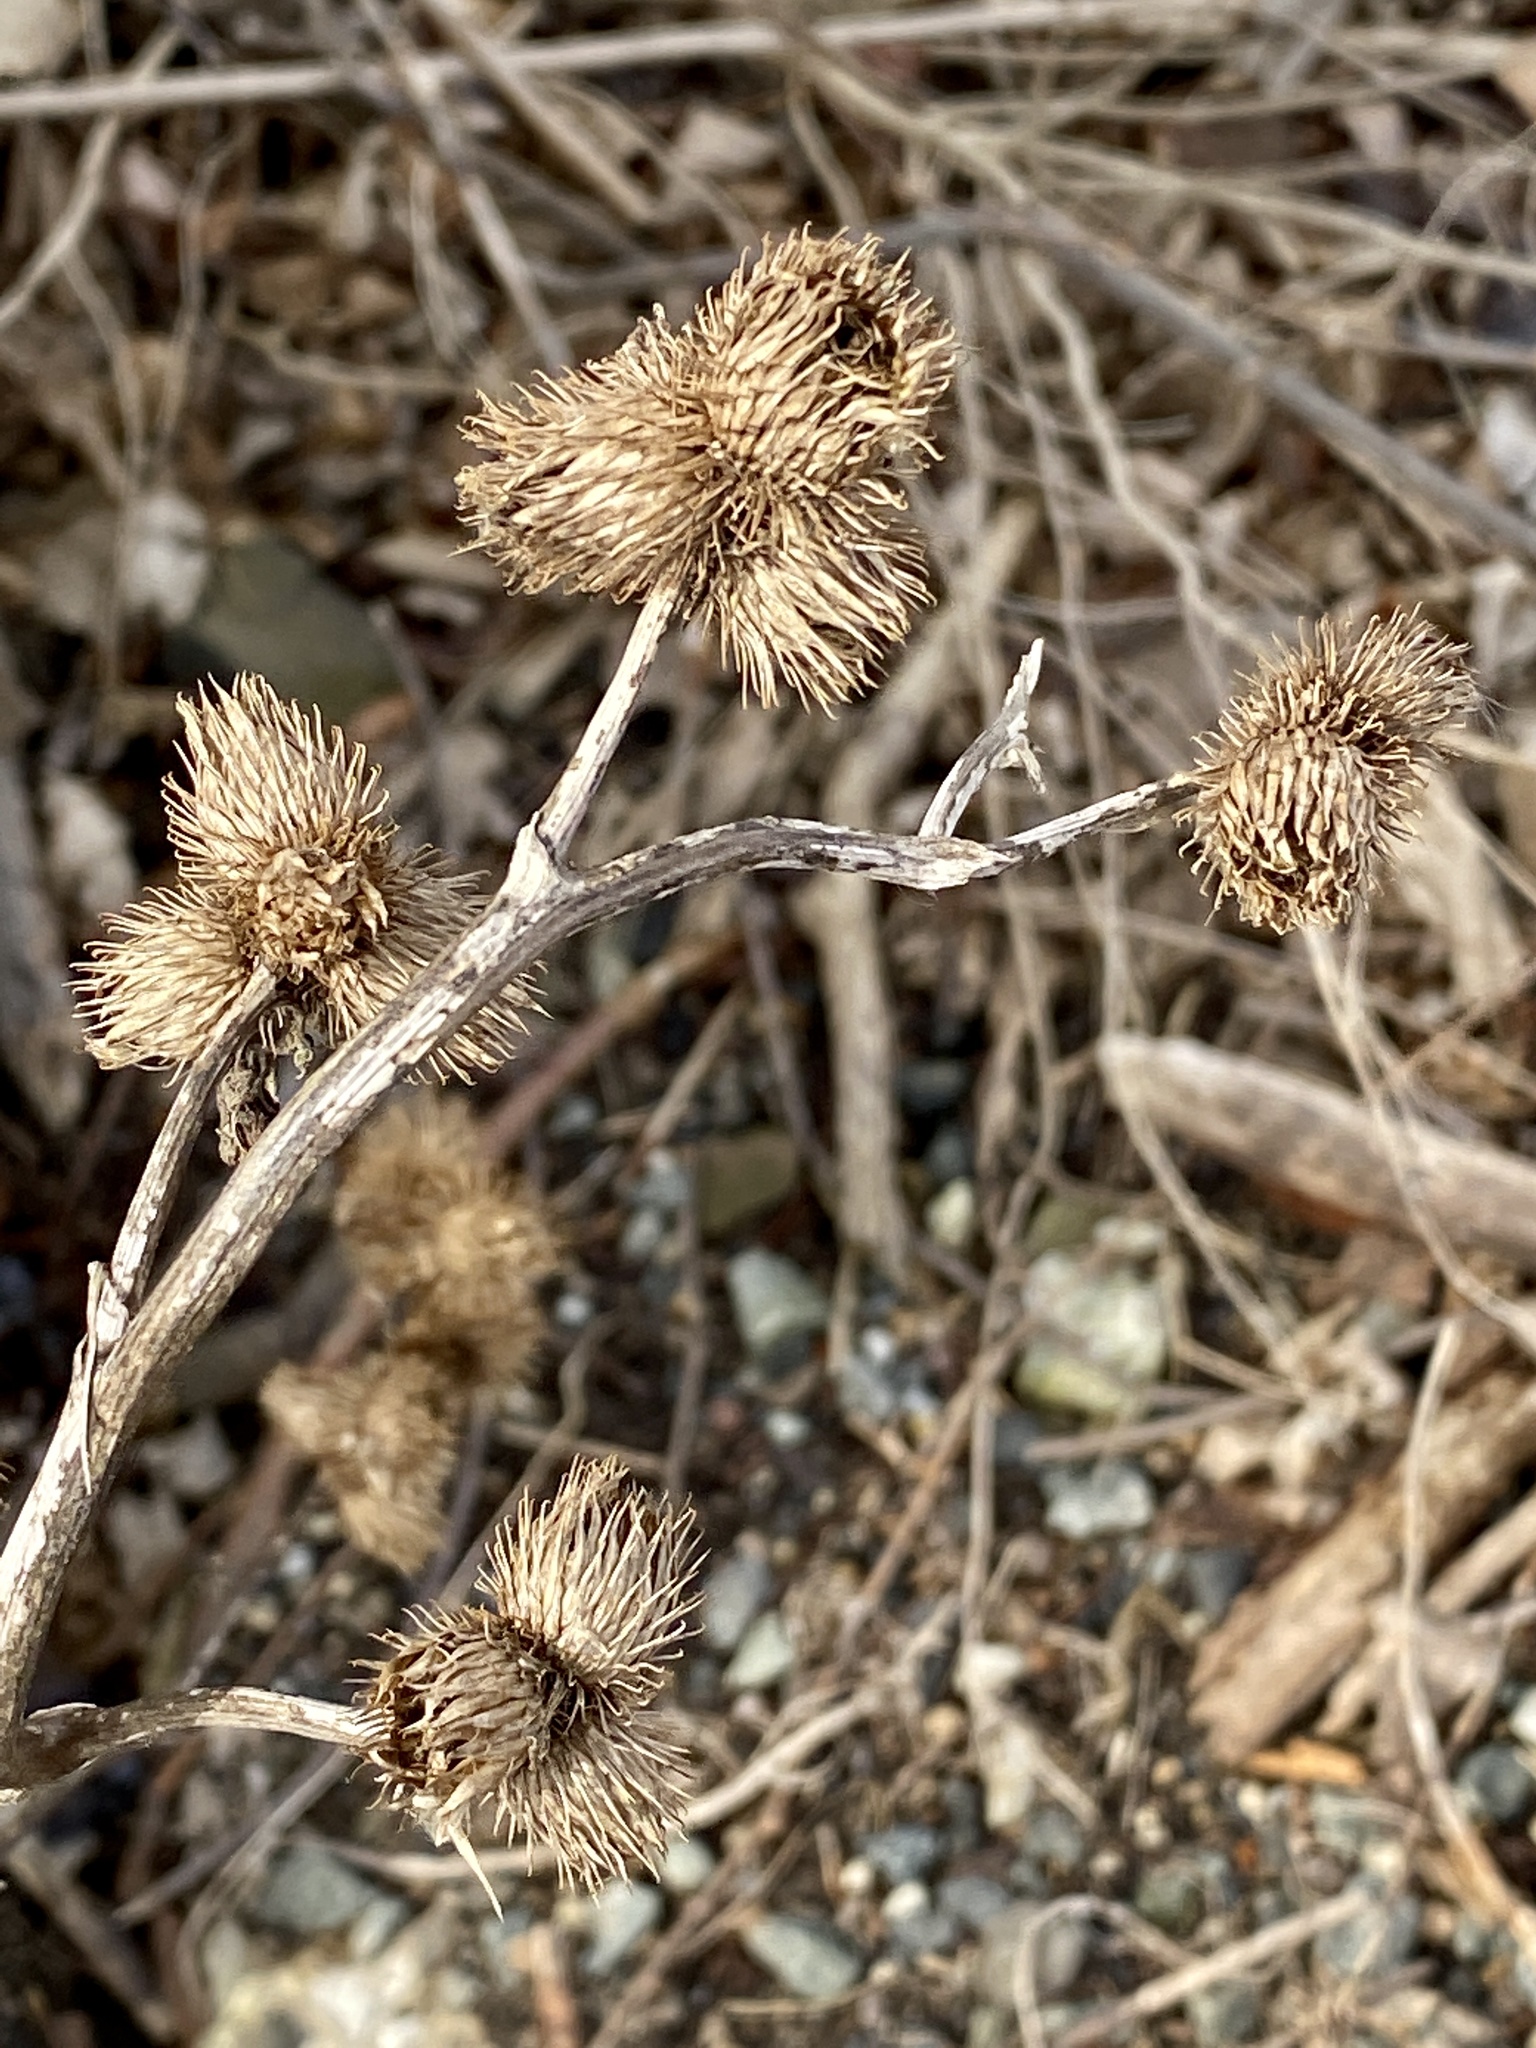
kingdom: Plantae
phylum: Tracheophyta
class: Magnoliopsida
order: Asterales
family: Asteraceae
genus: Arctium
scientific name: Arctium minus
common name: Lesser burdock
